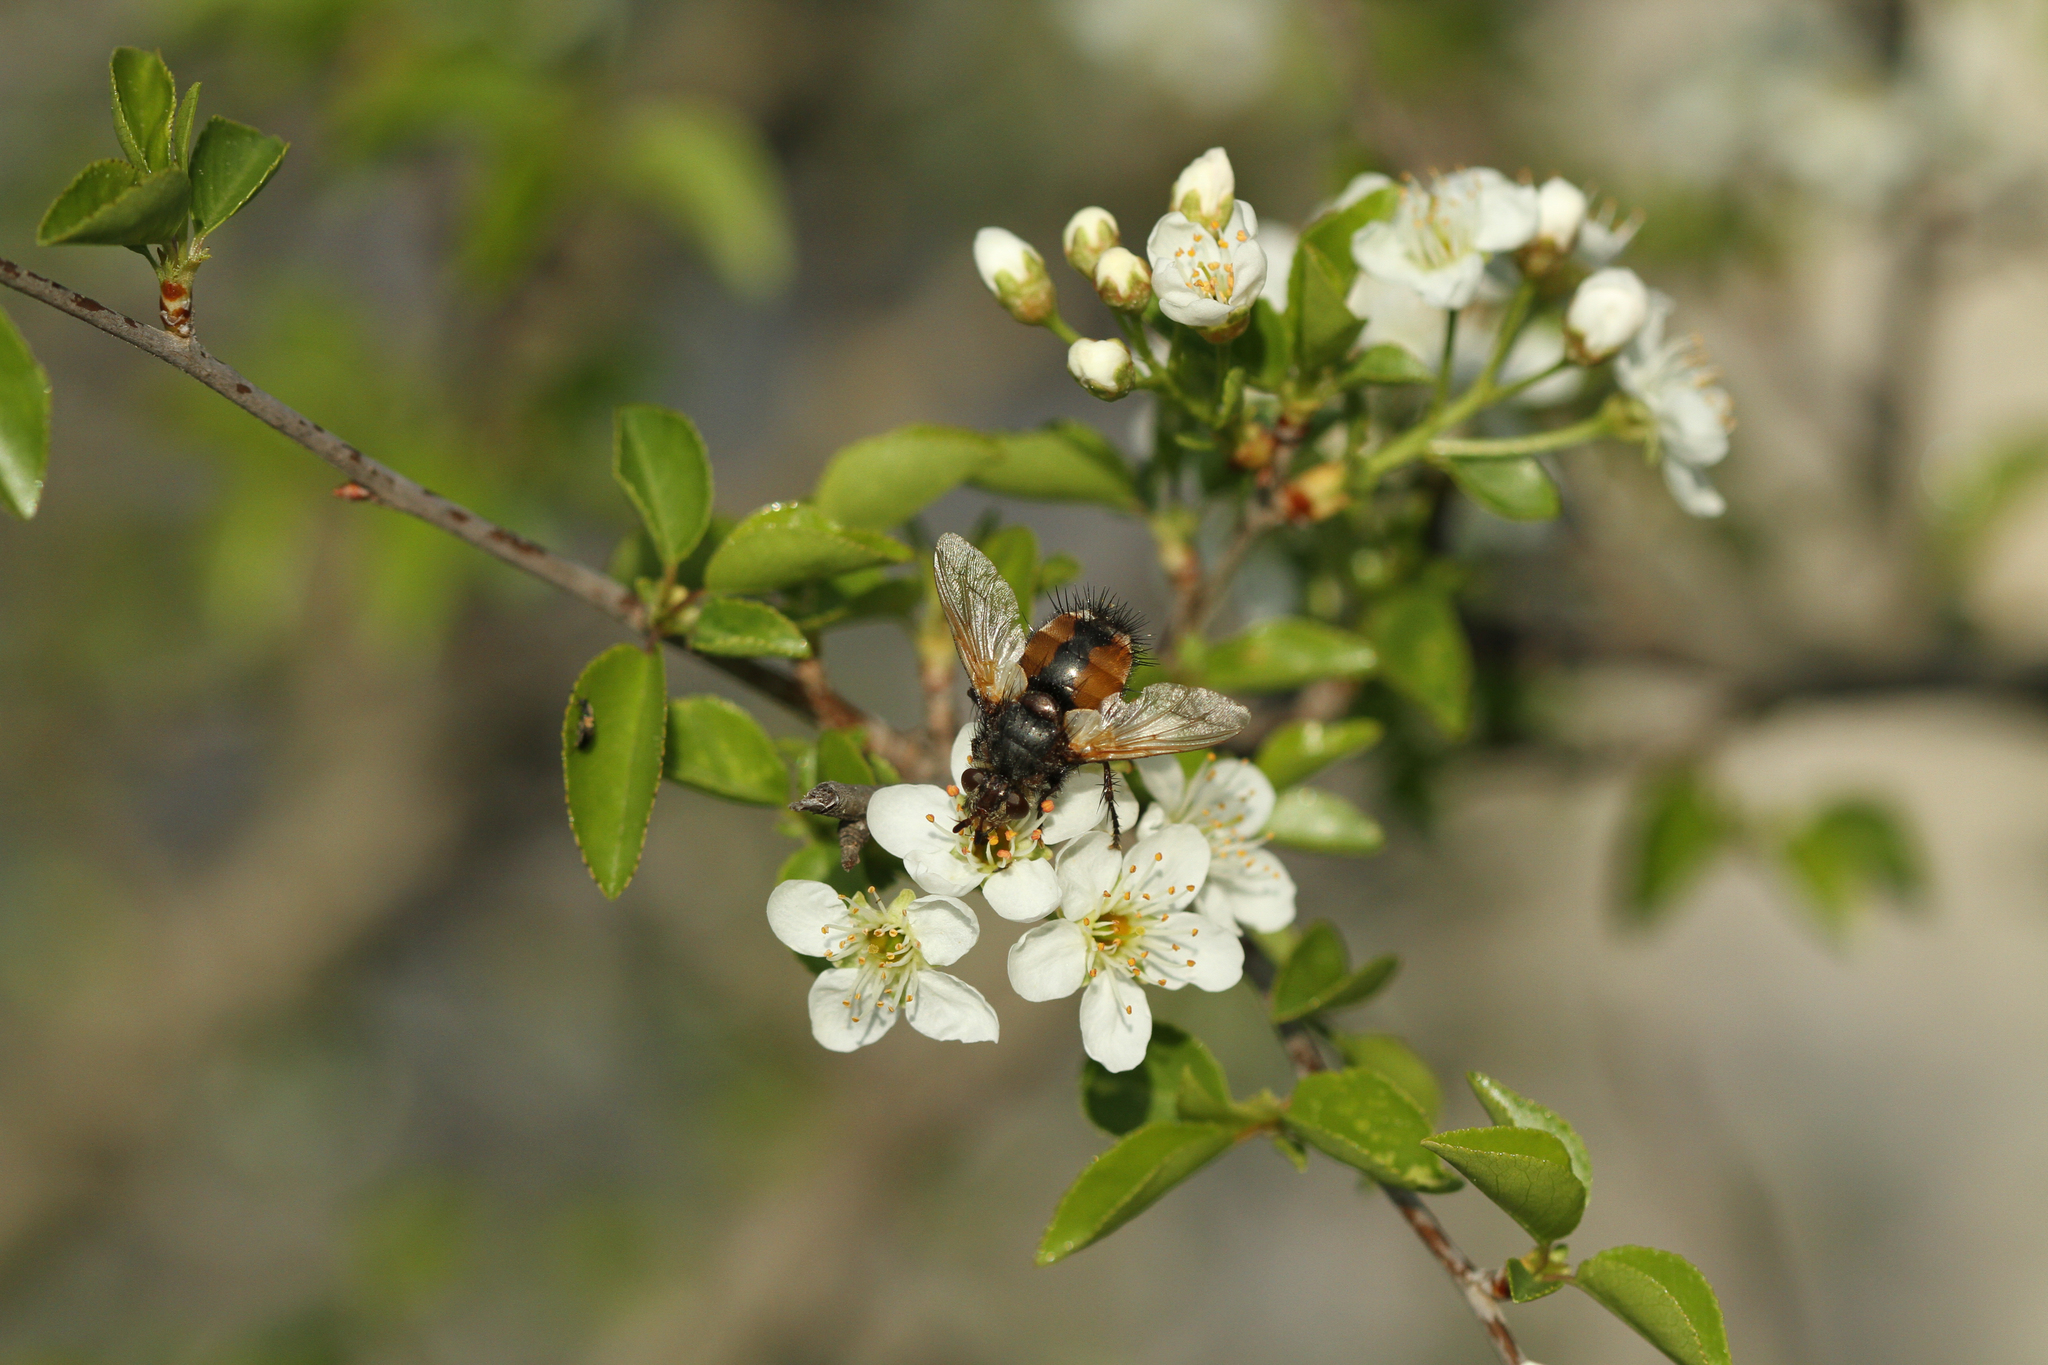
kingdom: Animalia
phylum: Arthropoda
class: Insecta
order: Diptera
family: Tachinidae
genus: Tachina
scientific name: Tachina fera
